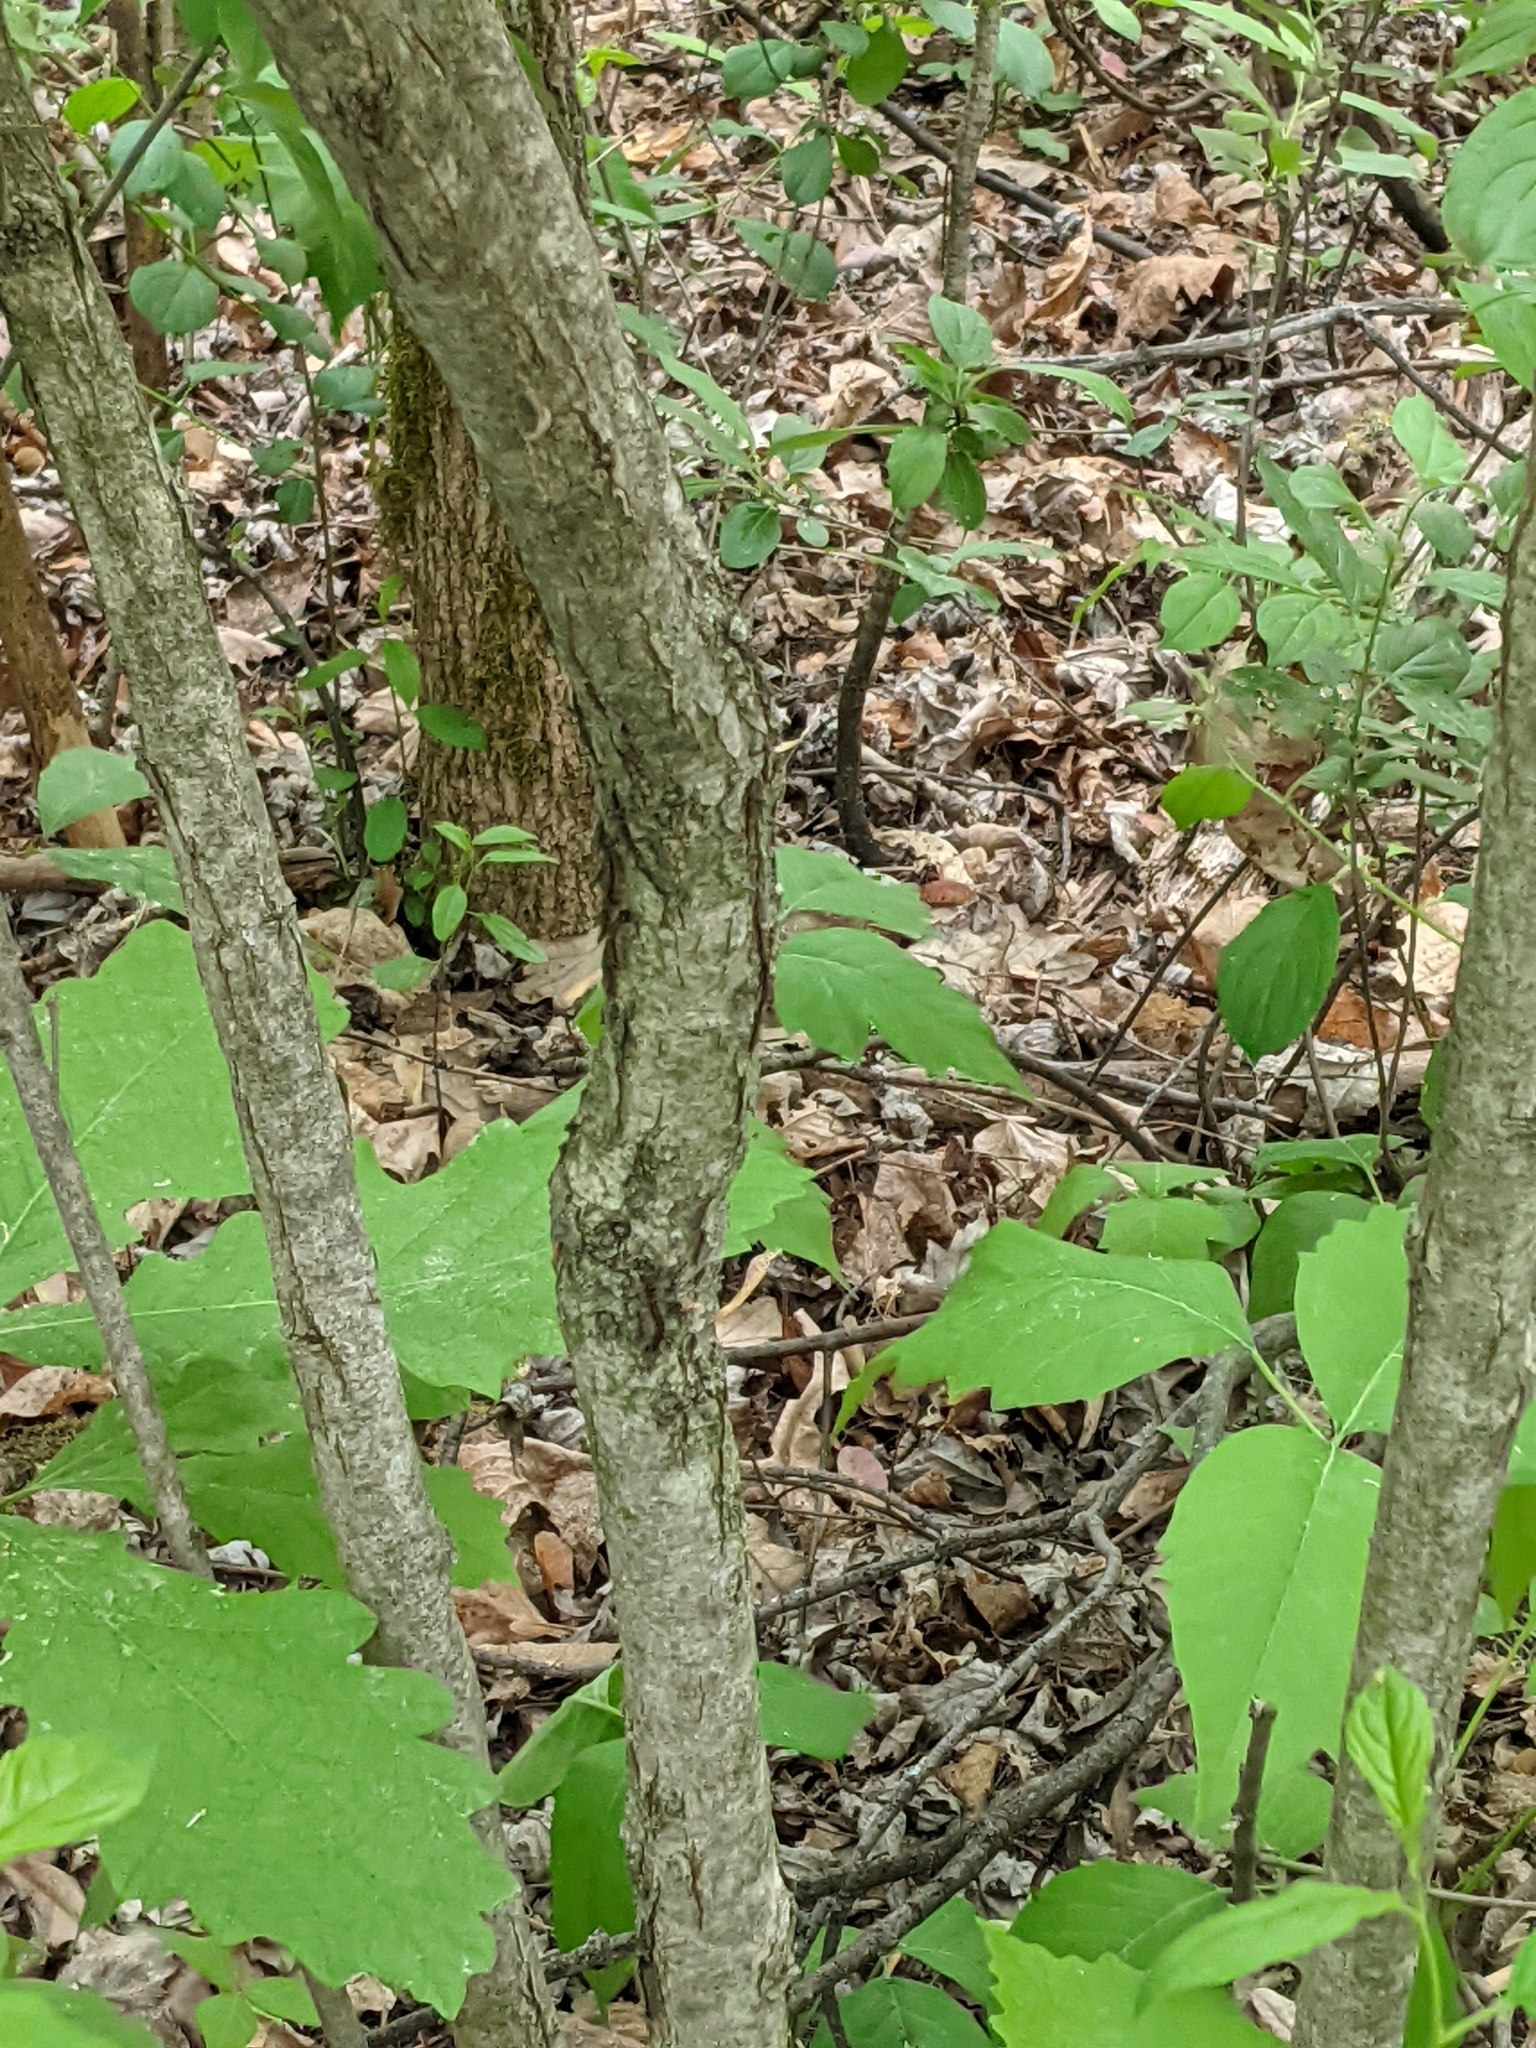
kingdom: Plantae
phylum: Tracheophyta
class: Magnoliopsida
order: Fagales
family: Fagaceae
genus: Quercus
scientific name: Quercus macrocarpa
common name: Bur oak
